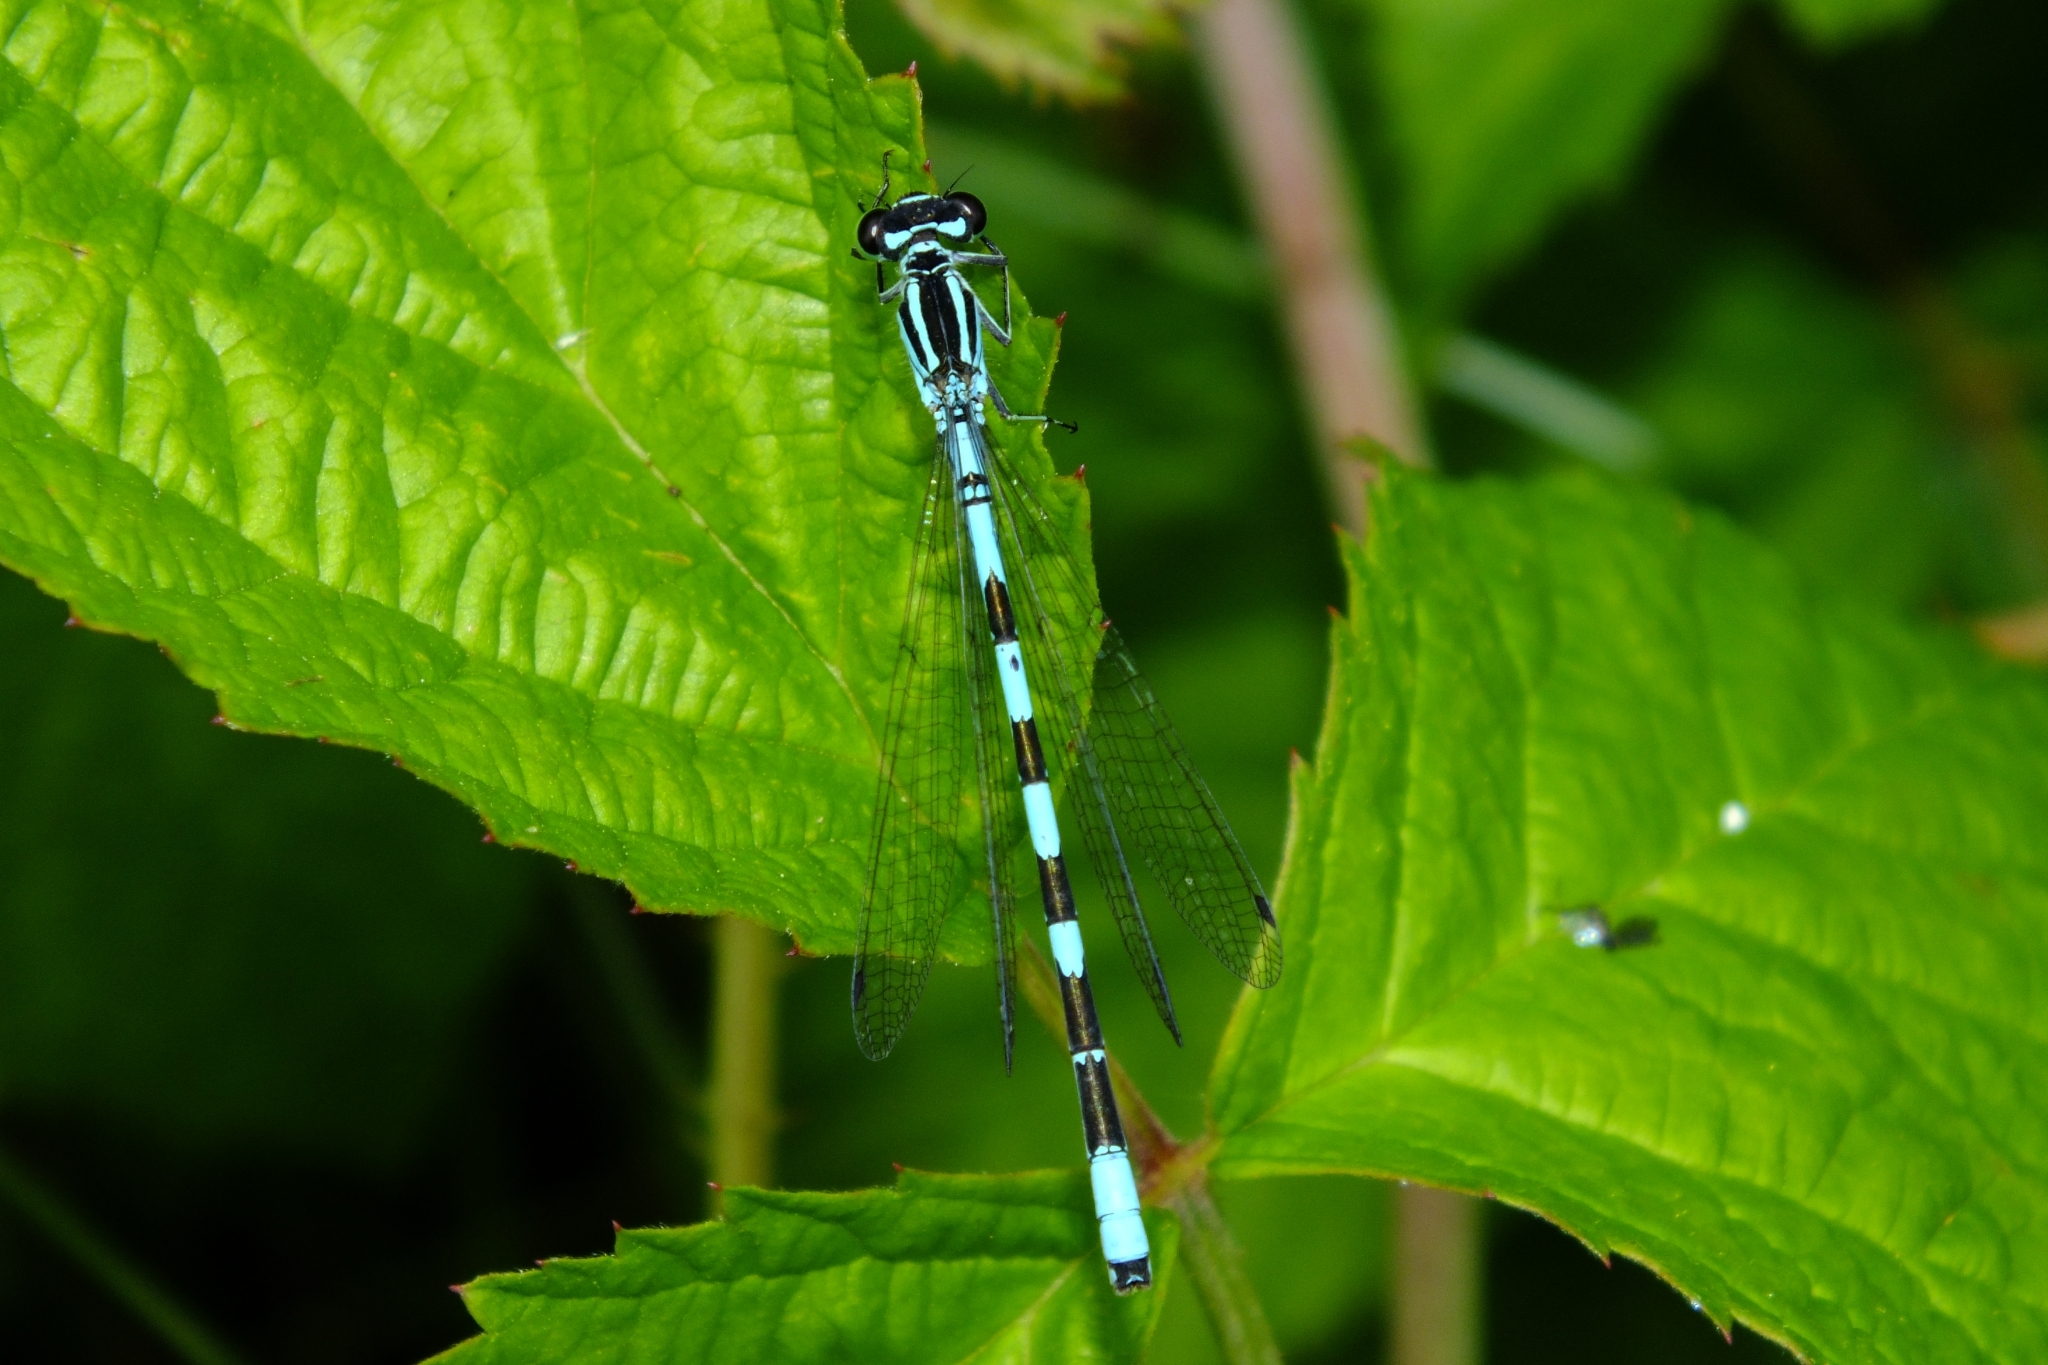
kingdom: Animalia
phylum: Arthropoda
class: Insecta
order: Odonata
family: Coenagrionidae
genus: Coenagrion
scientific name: Coenagrion hastulatum
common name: Spearhead bluet
